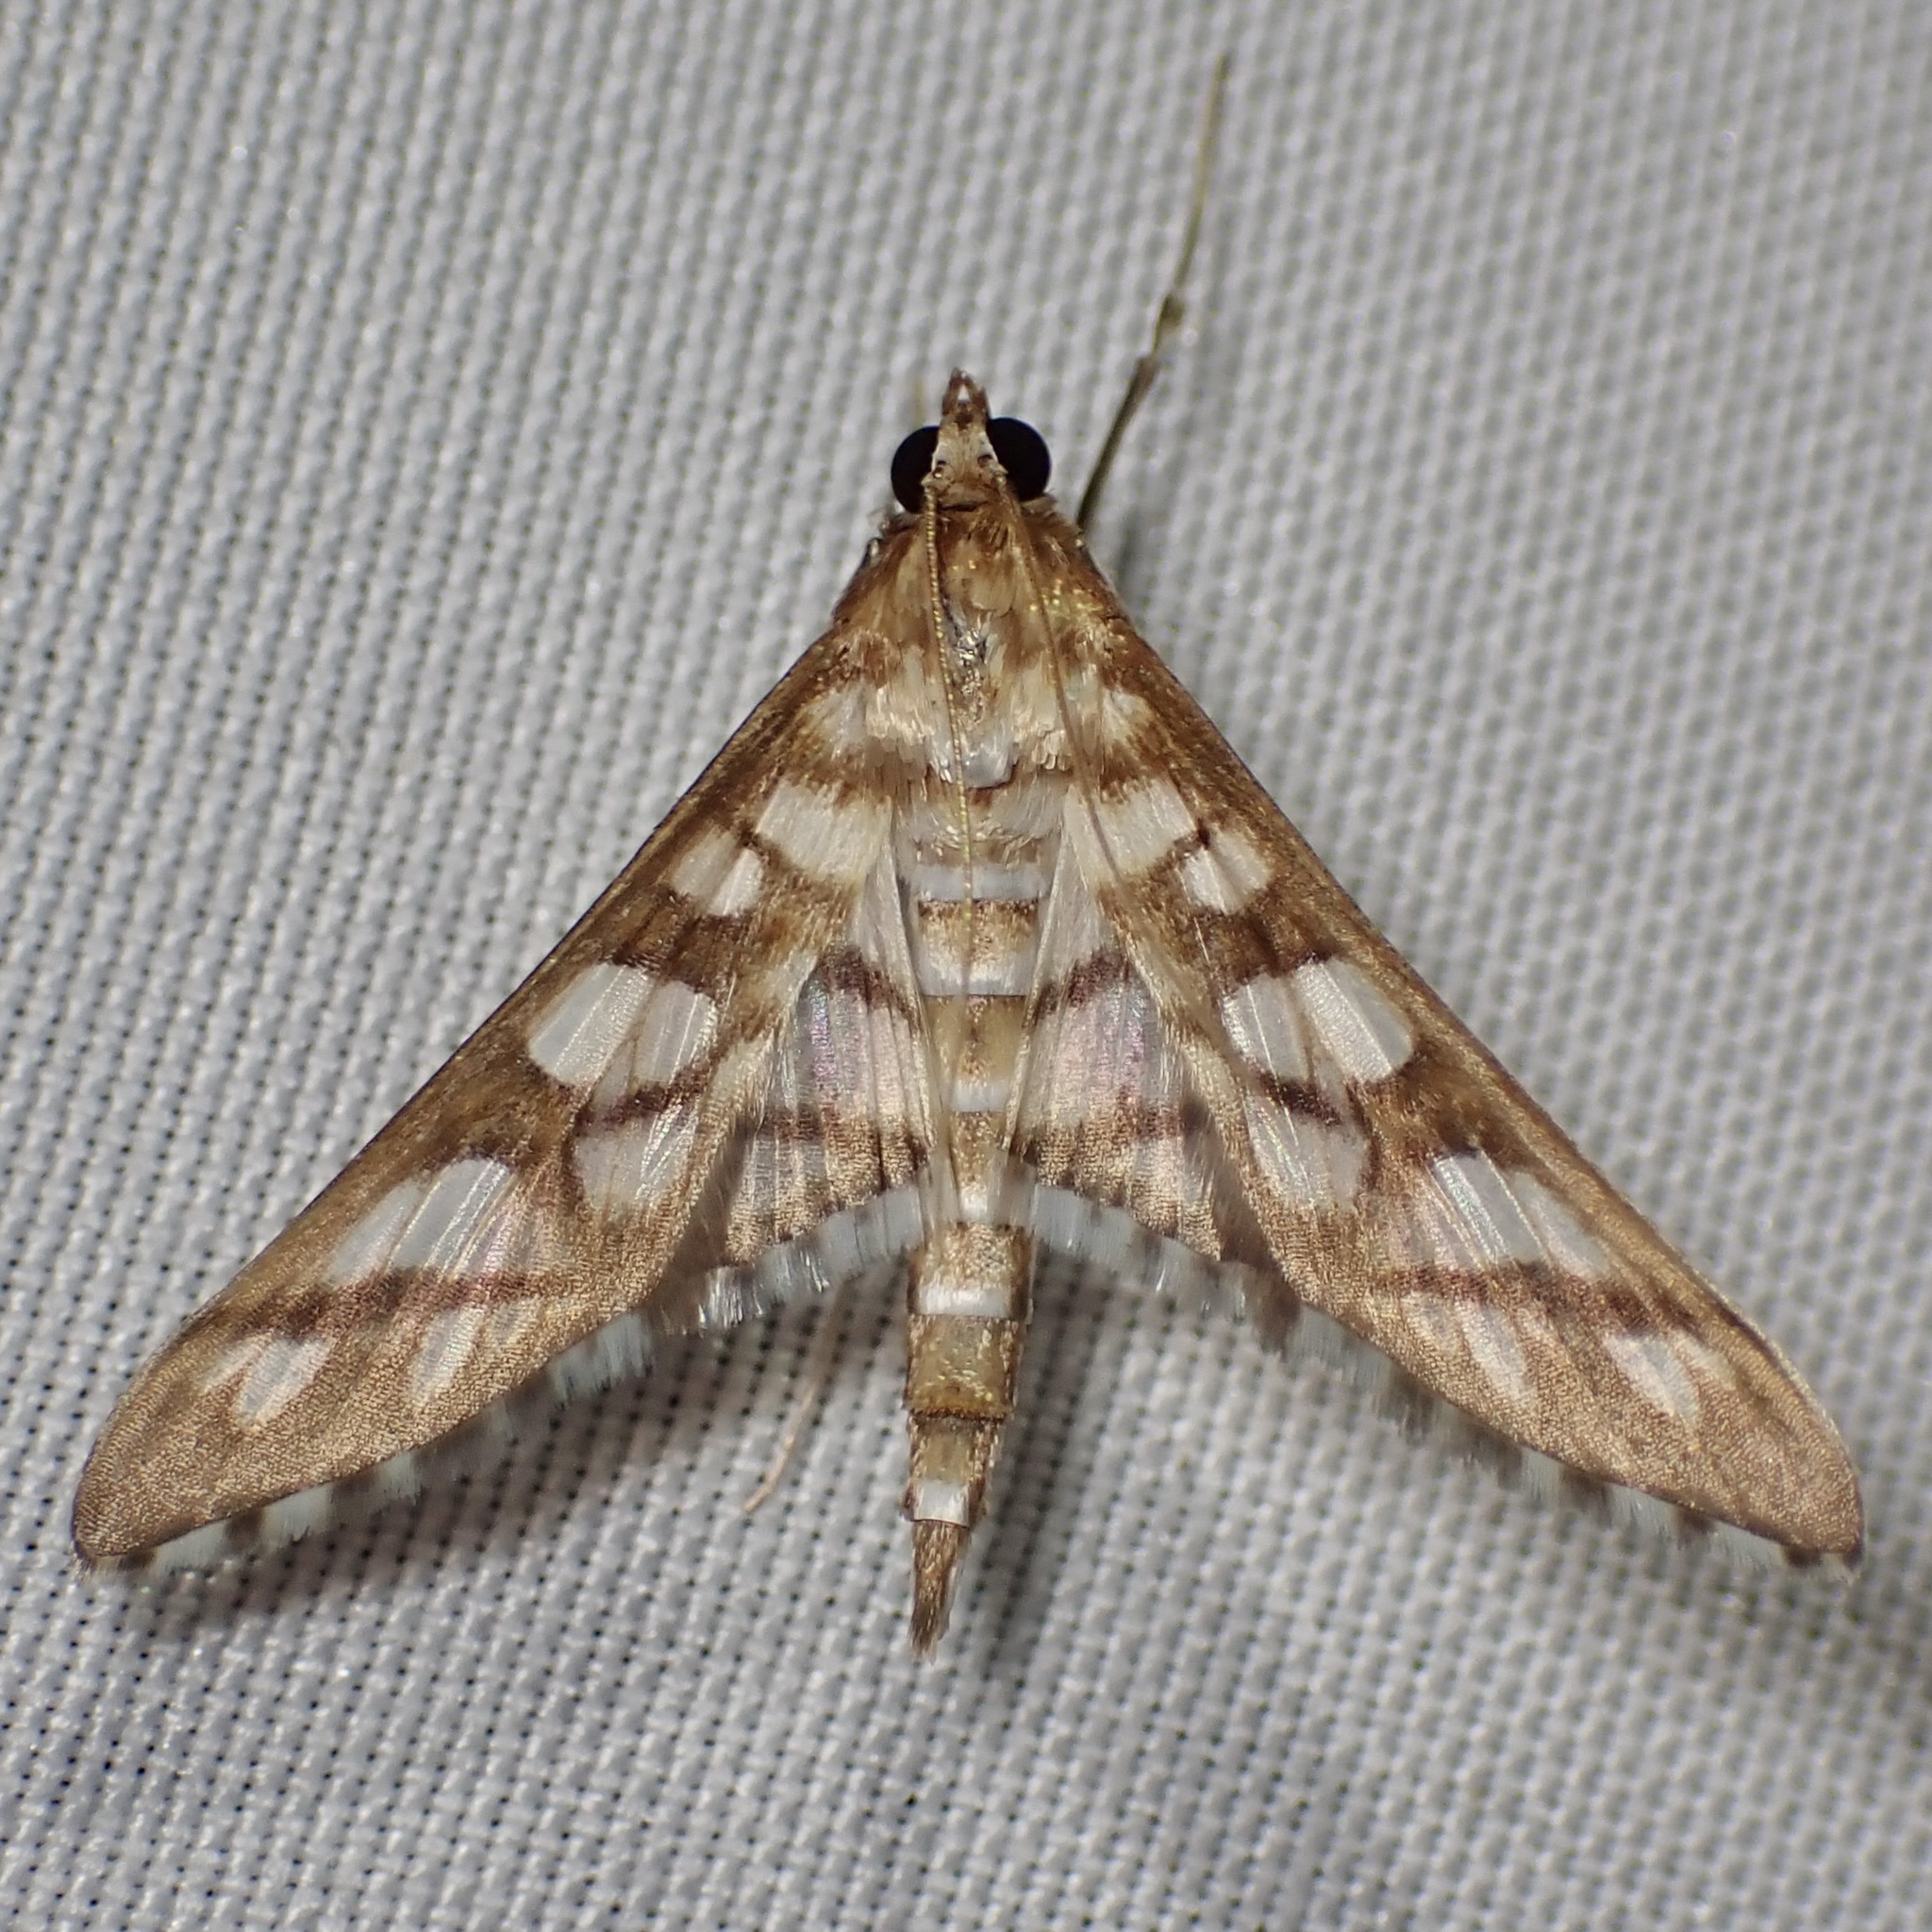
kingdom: Animalia
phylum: Arthropoda
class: Insecta
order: Lepidoptera
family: Crambidae
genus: Epipagis
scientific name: Epipagis disparilis
